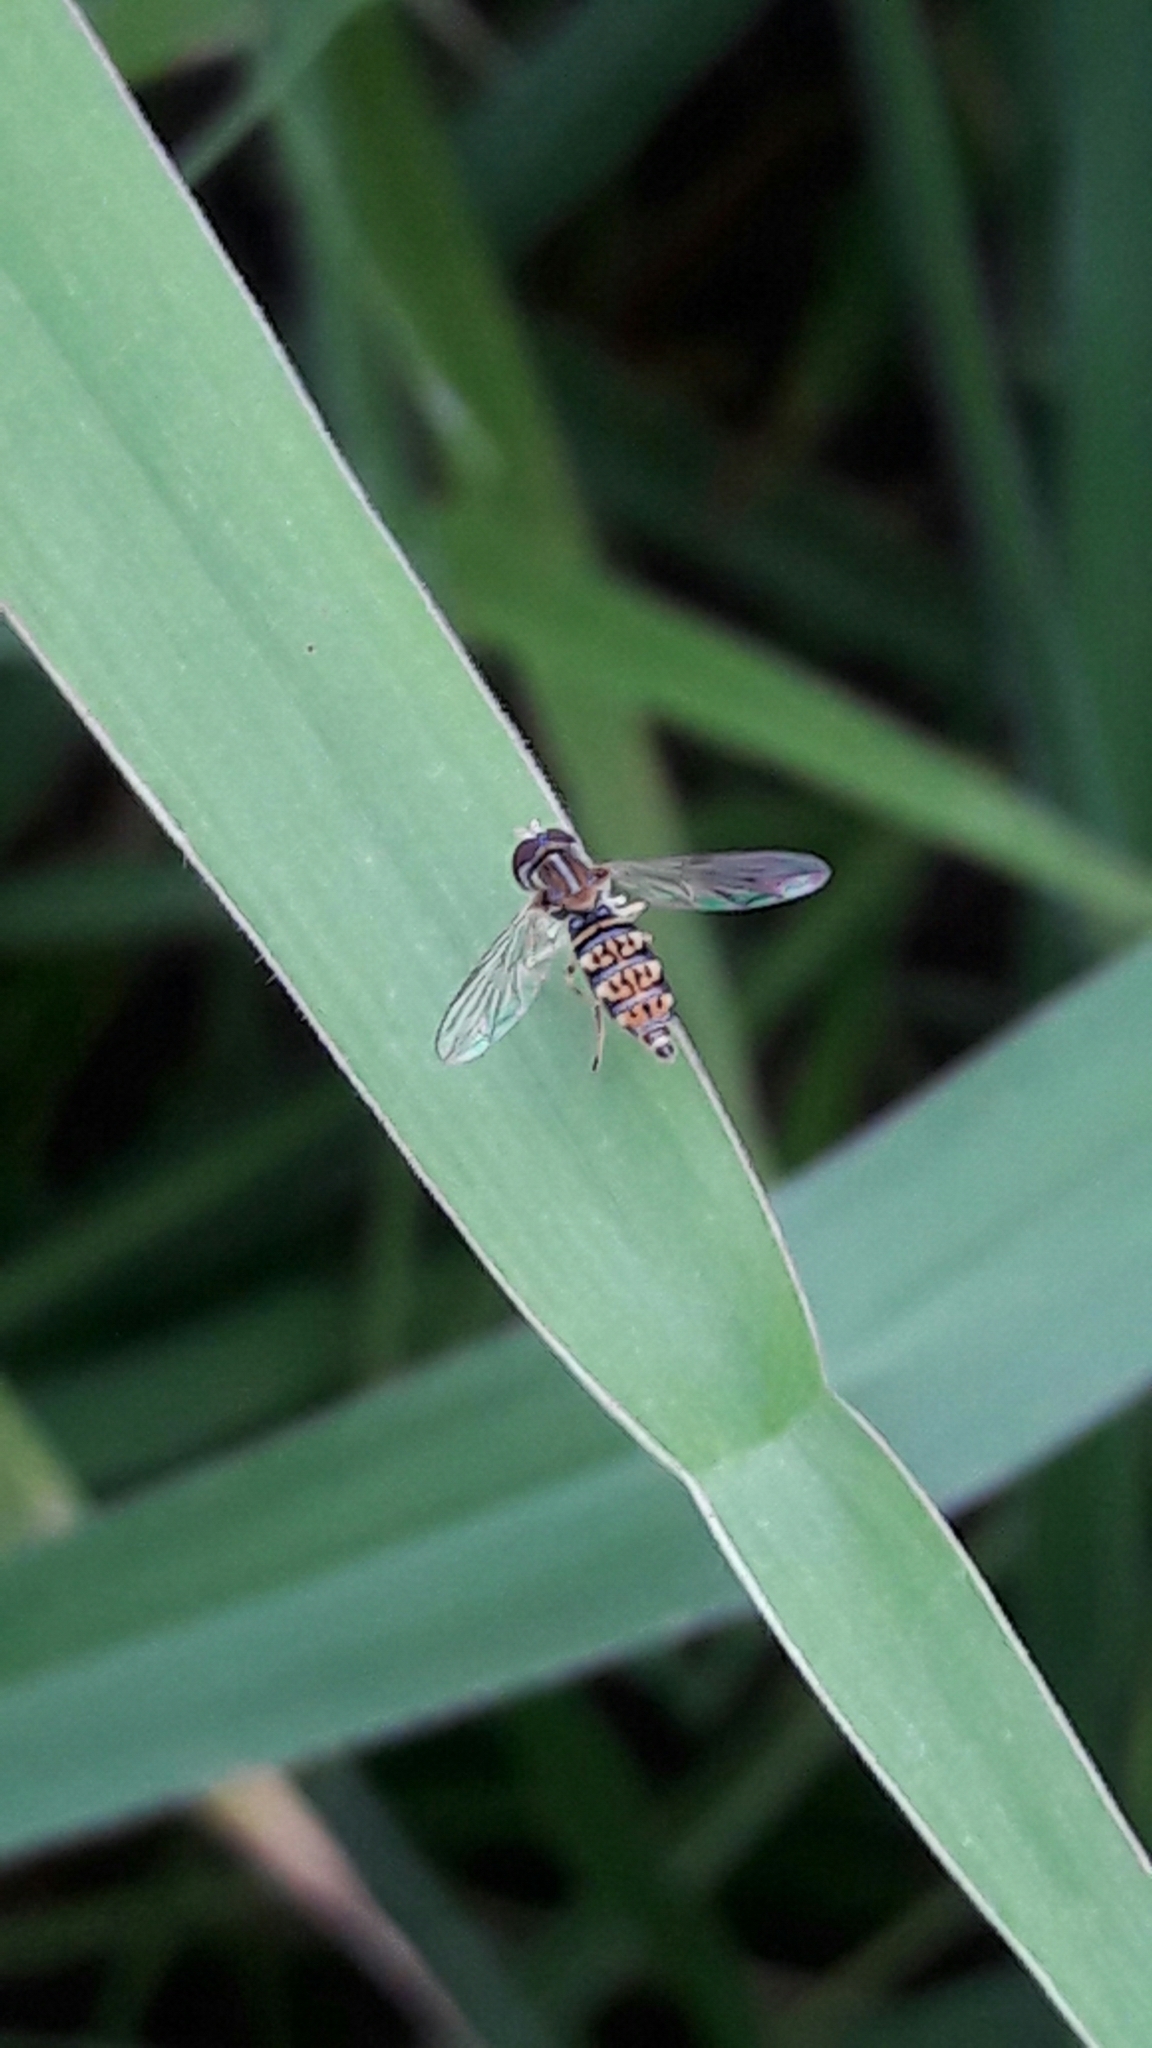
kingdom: Animalia
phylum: Arthropoda
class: Insecta
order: Diptera
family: Syrphidae
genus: Toxomerus
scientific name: Toxomerus
